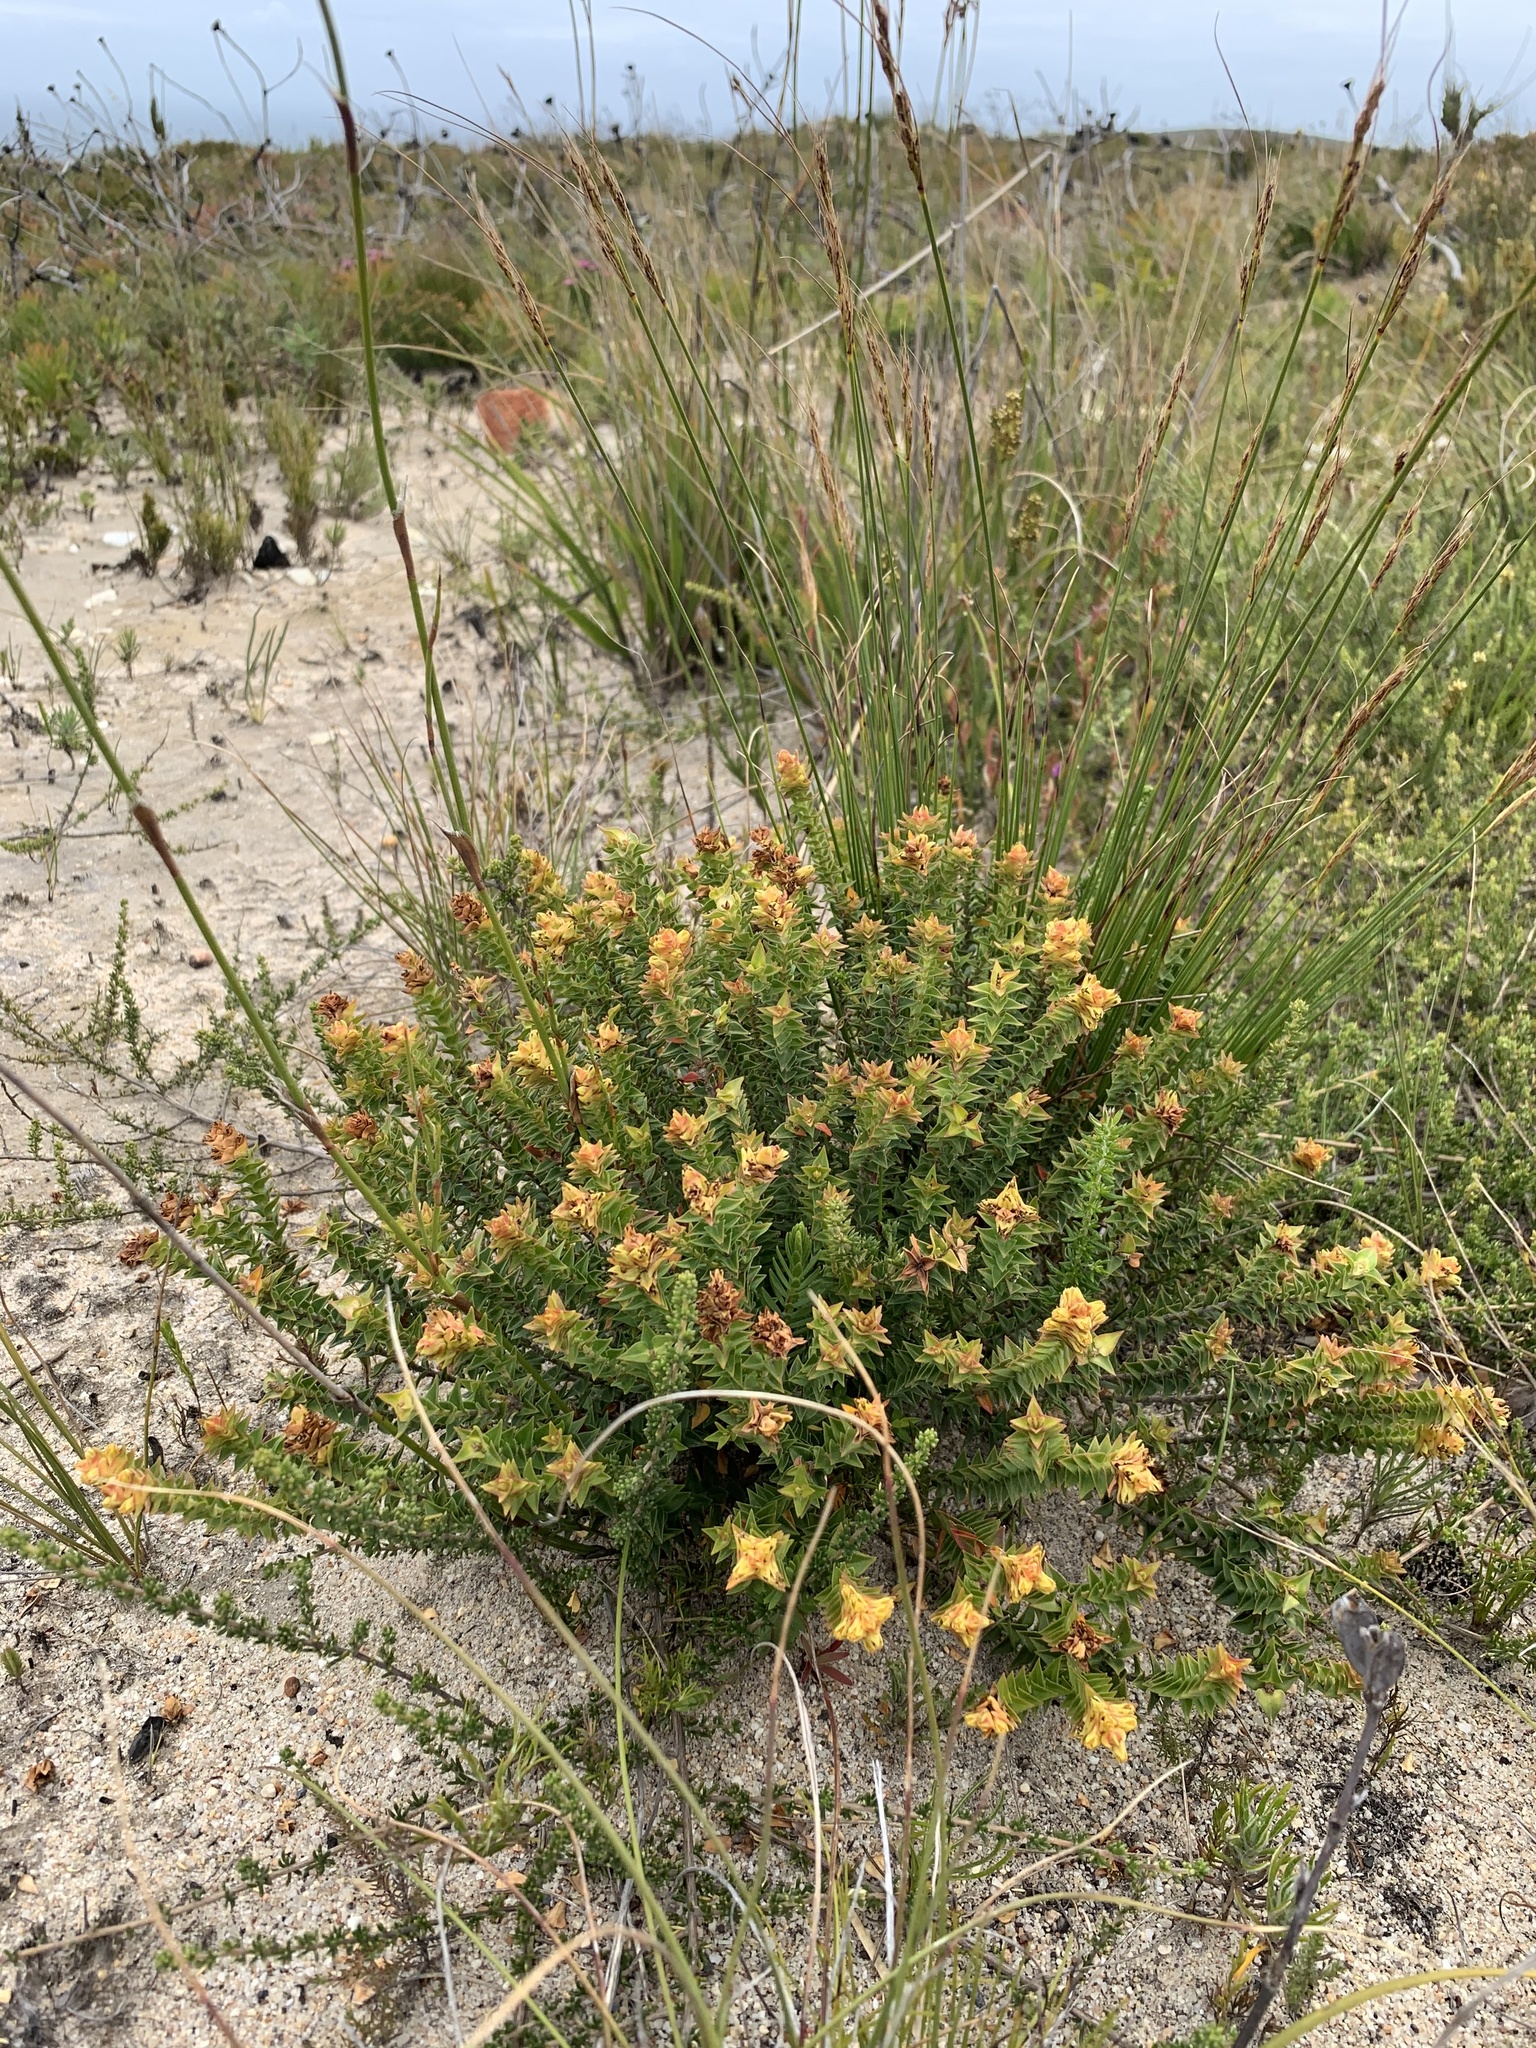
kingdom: Plantae
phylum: Tracheophyta
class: Magnoliopsida
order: Myrtales
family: Penaeaceae
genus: Penaea
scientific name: Penaea mucronata
